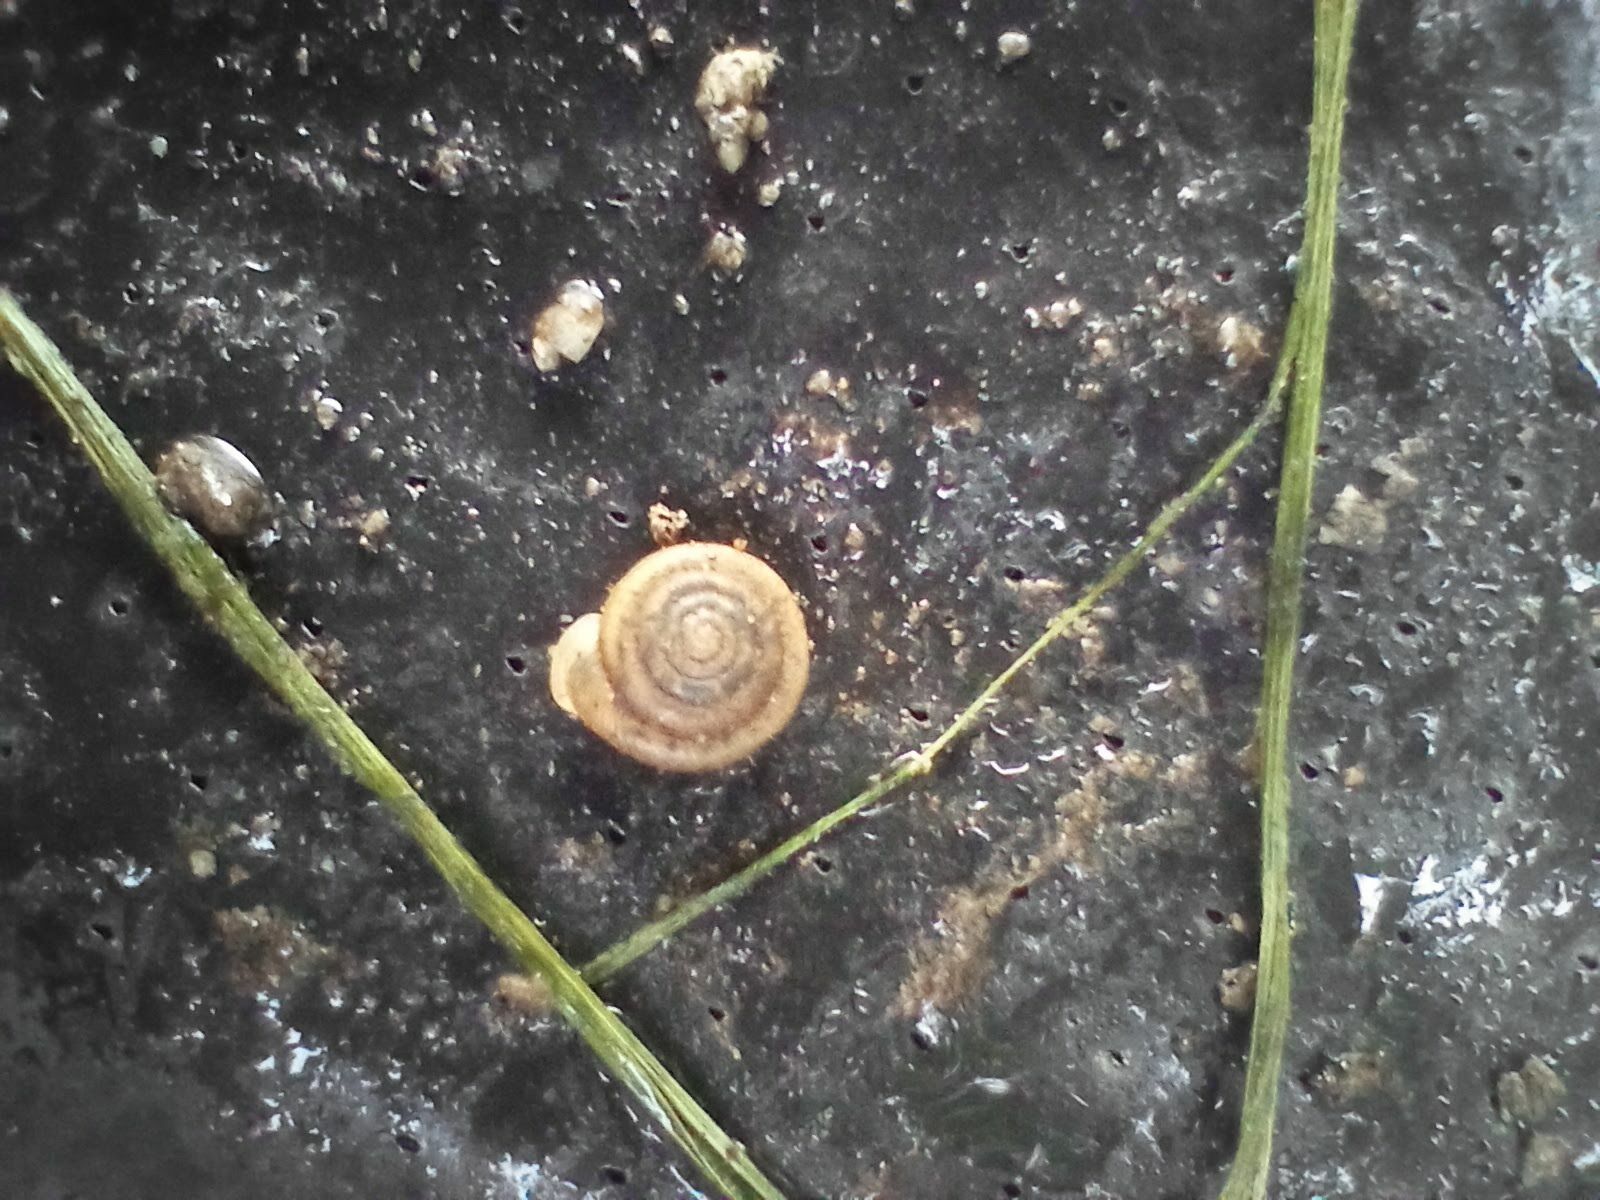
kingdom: Animalia
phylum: Mollusca
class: Gastropoda
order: Stylommatophora
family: Polygyridae
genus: Polygyra
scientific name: Polygyra cereolus
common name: Southern flatcone snail
